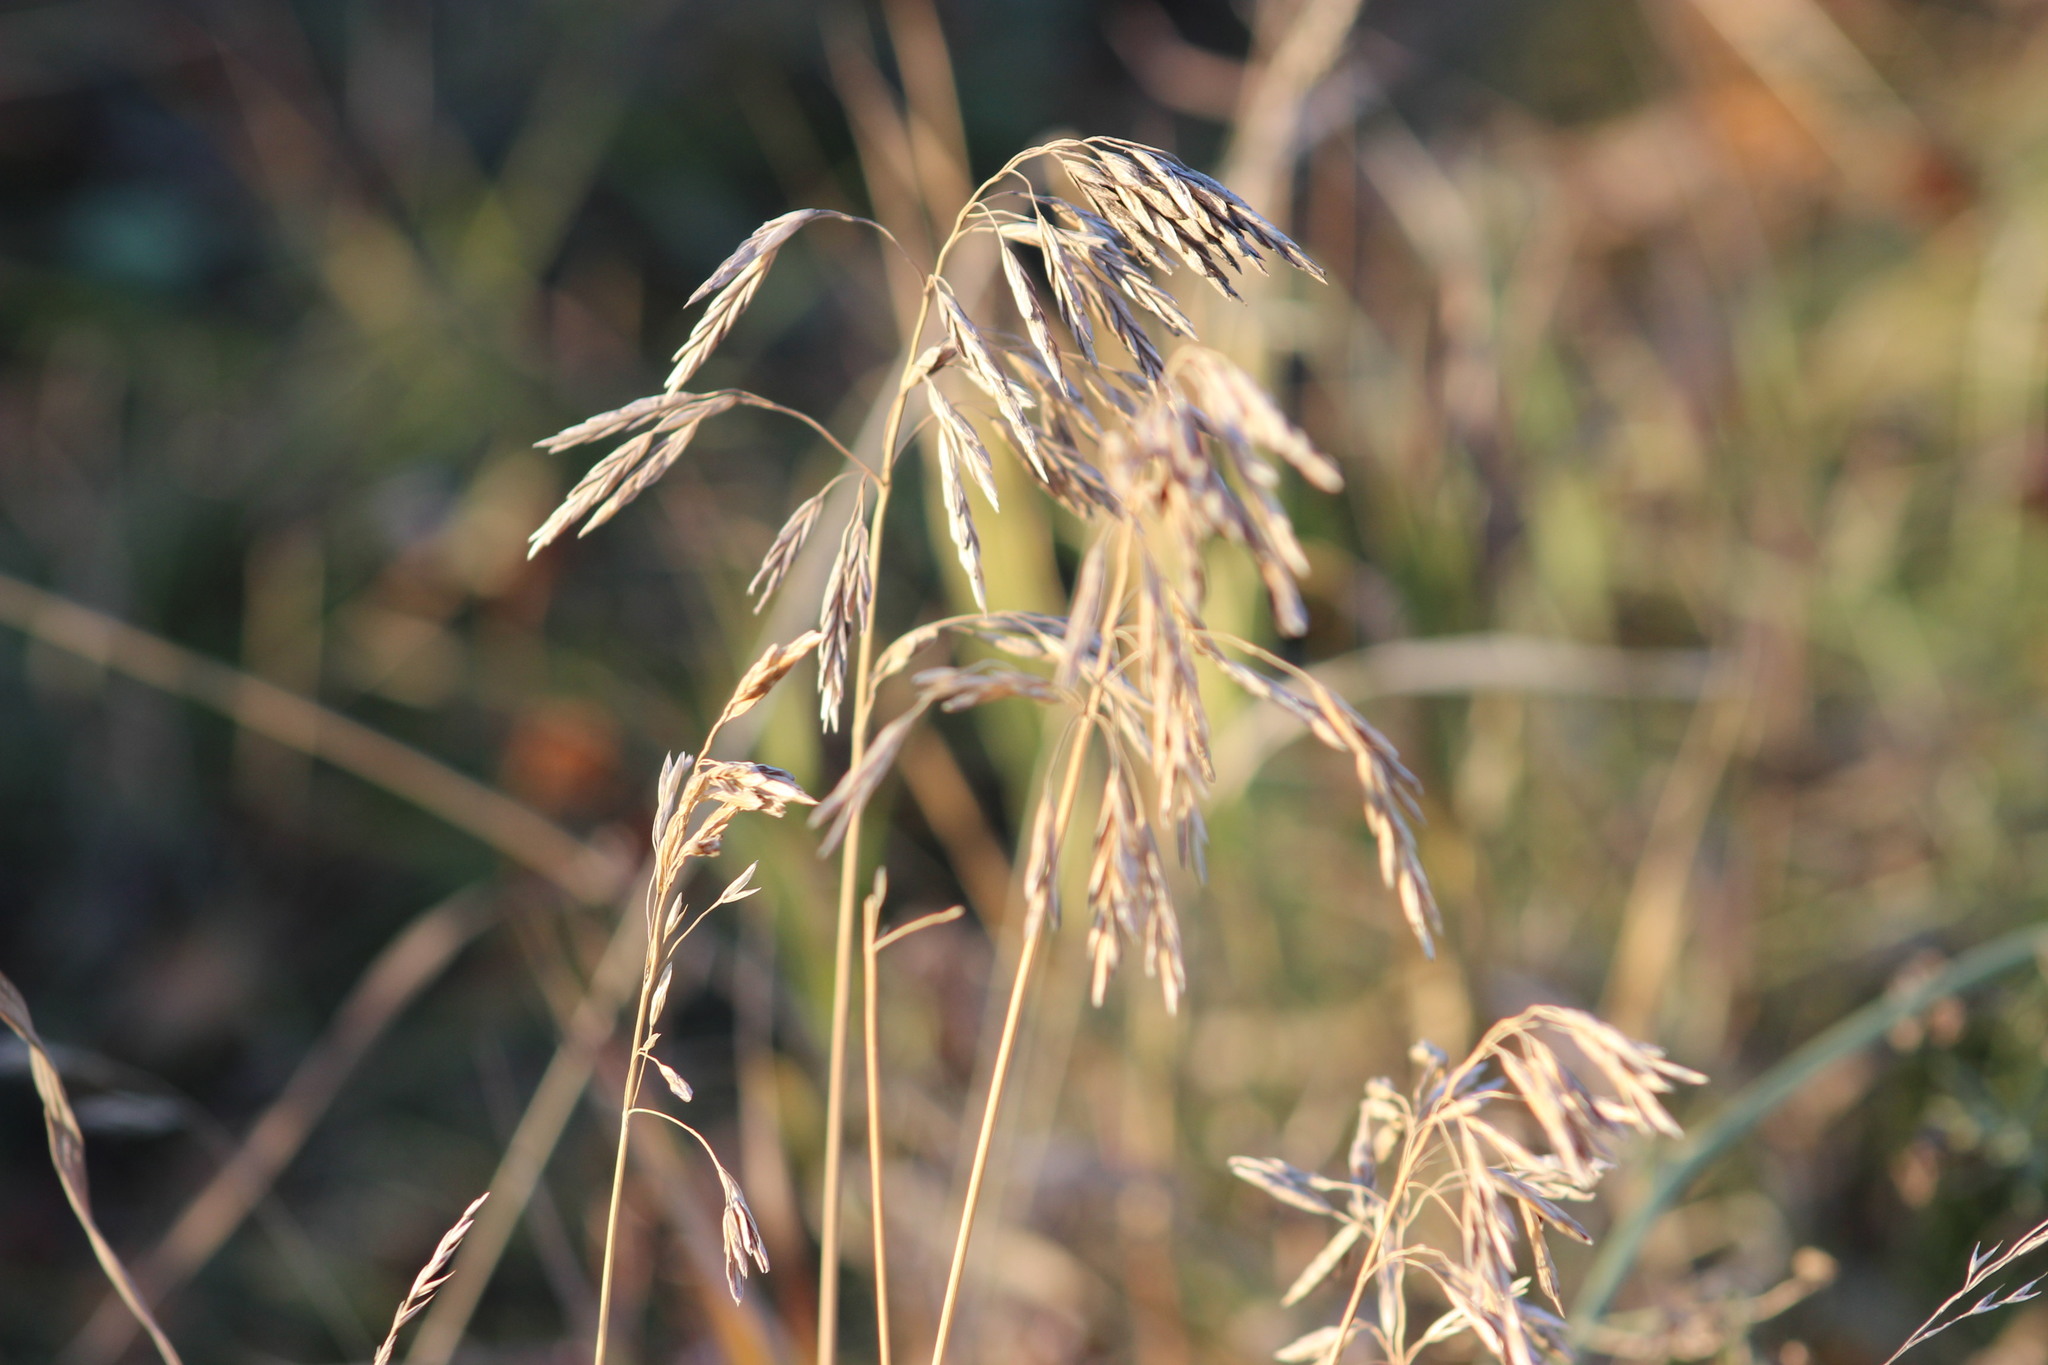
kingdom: Plantae
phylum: Tracheophyta
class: Liliopsida
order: Poales
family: Poaceae
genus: Bromus
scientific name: Bromus inermis
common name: Smooth brome
